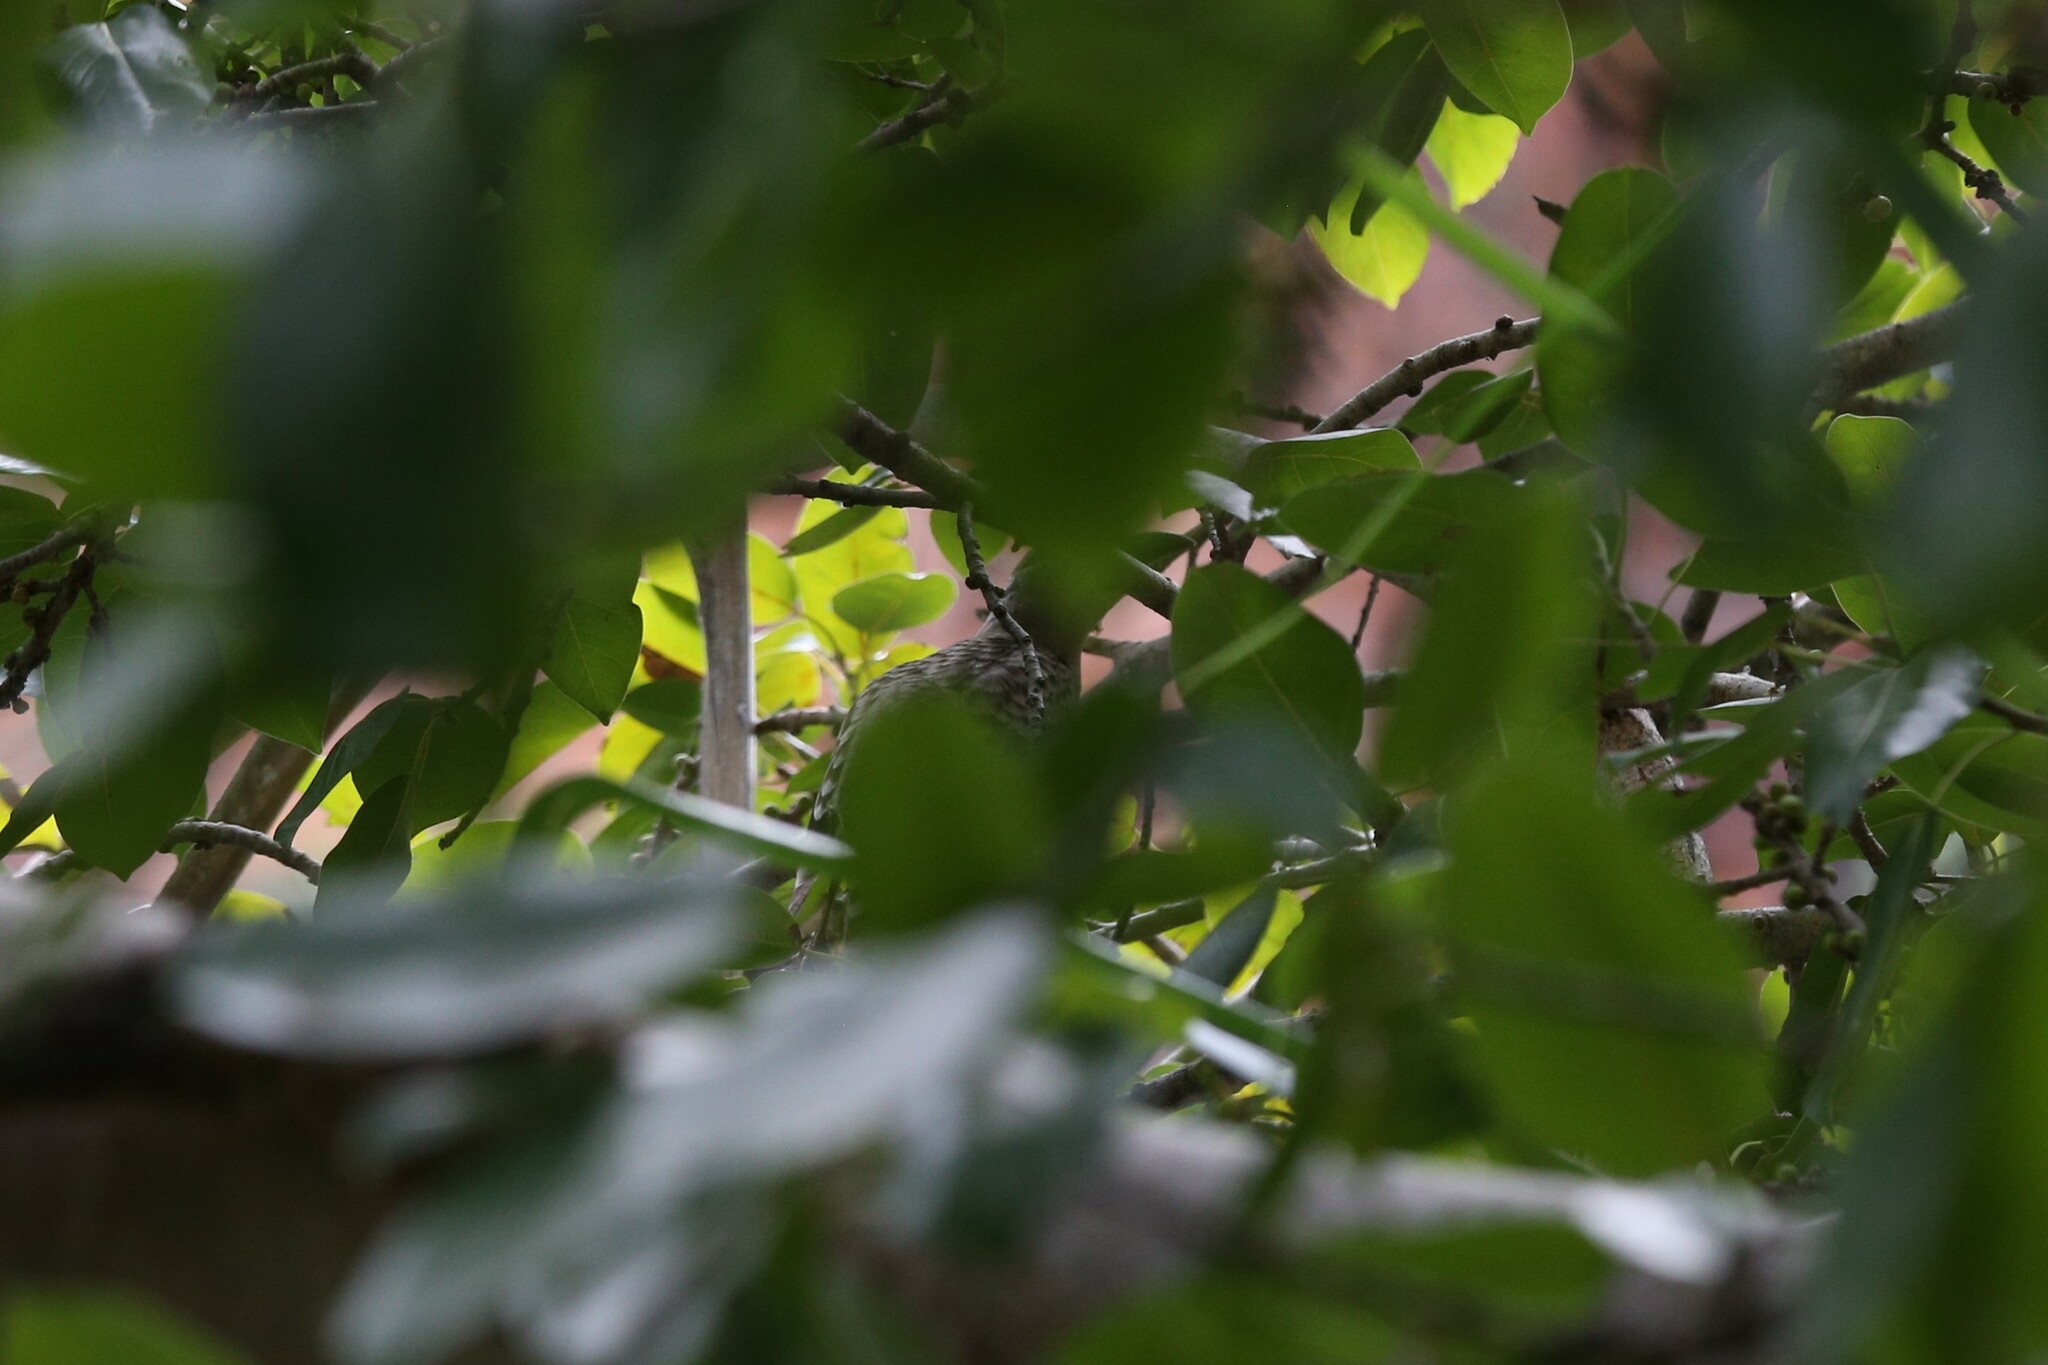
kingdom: Animalia
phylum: Chordata
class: Aves
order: Passeriformes
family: Ptilonorhynchidae
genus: Chlamydera
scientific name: Chlamydera nuchalis
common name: Great bowerbird
